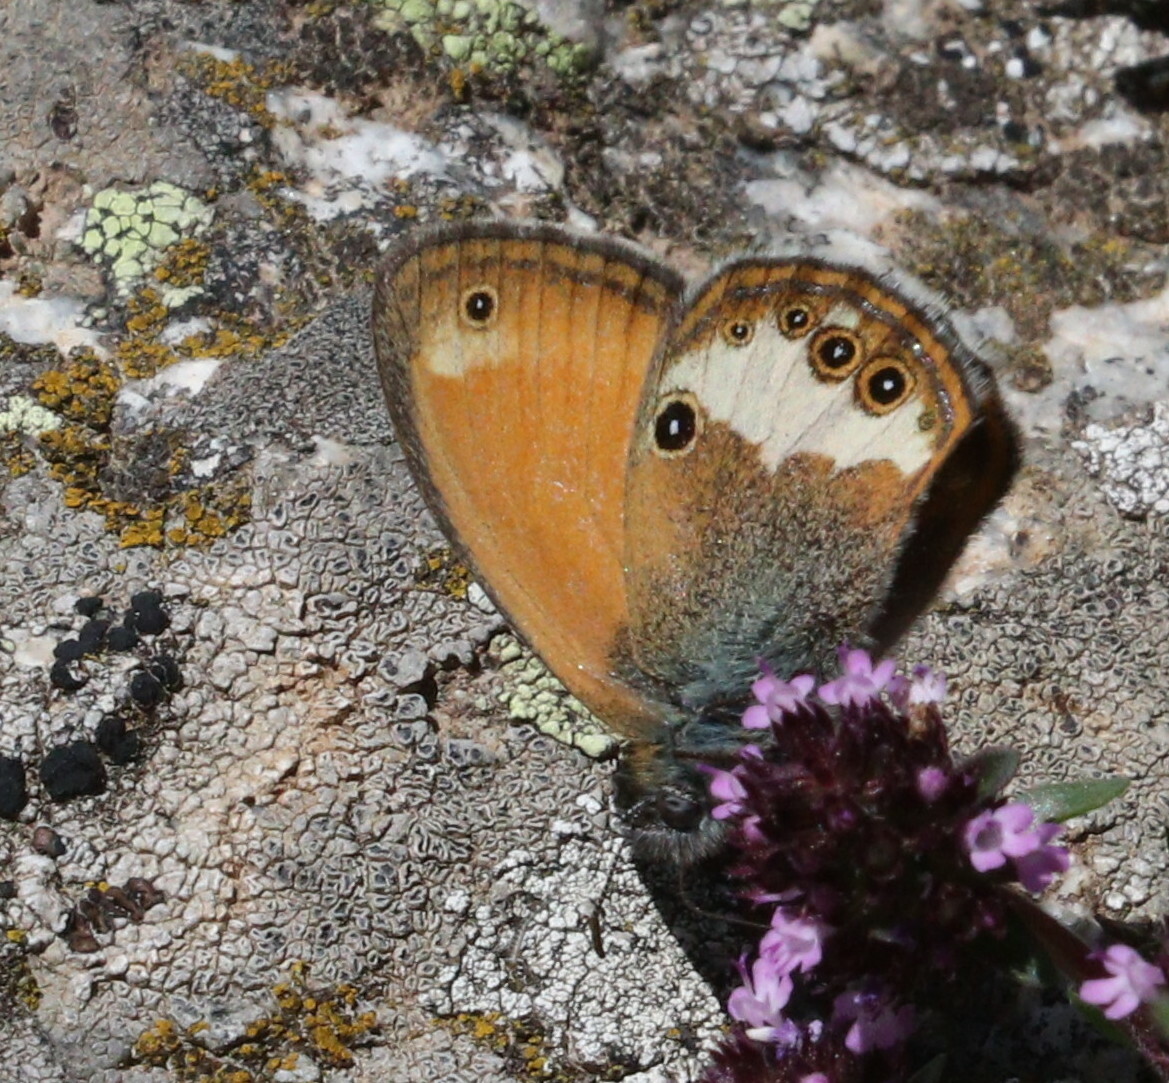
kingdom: Animalia
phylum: Arthropoda
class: Insecta
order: Lepidoptera
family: Nymphalidae
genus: Coenonympha
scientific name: Coenonympha arcania
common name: Pearly heath
